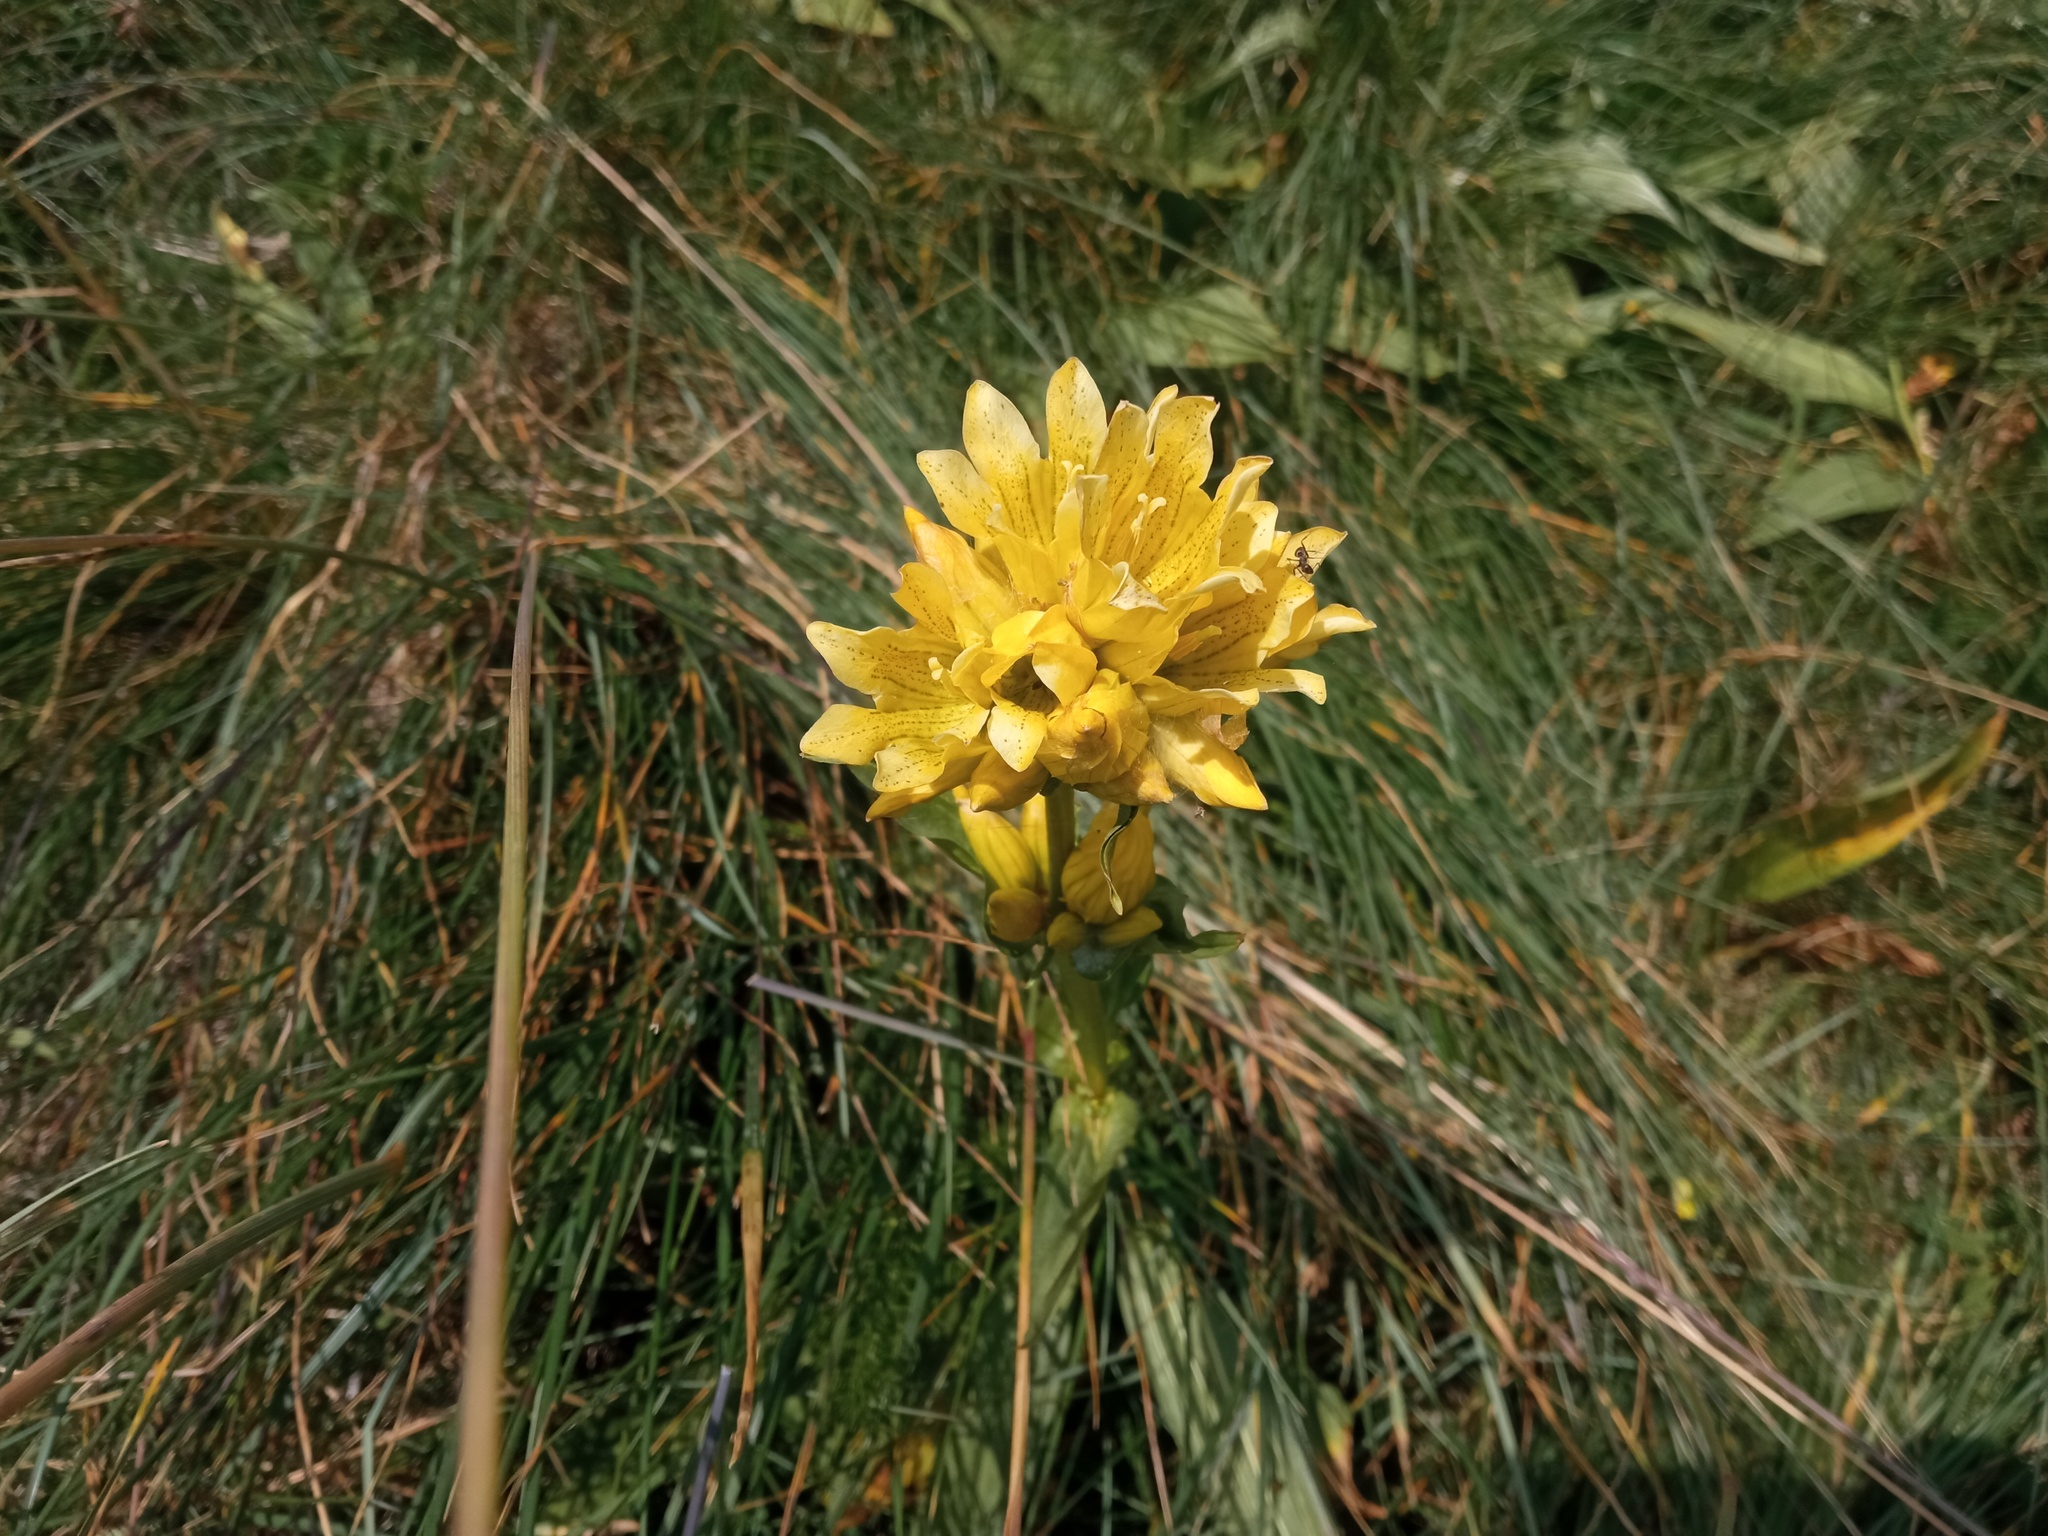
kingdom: Plantae
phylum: Tracheophyta
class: Magnoliopsida
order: Gentianales
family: Gentianaceae
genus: Gentiana
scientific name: Gentiana burseri
